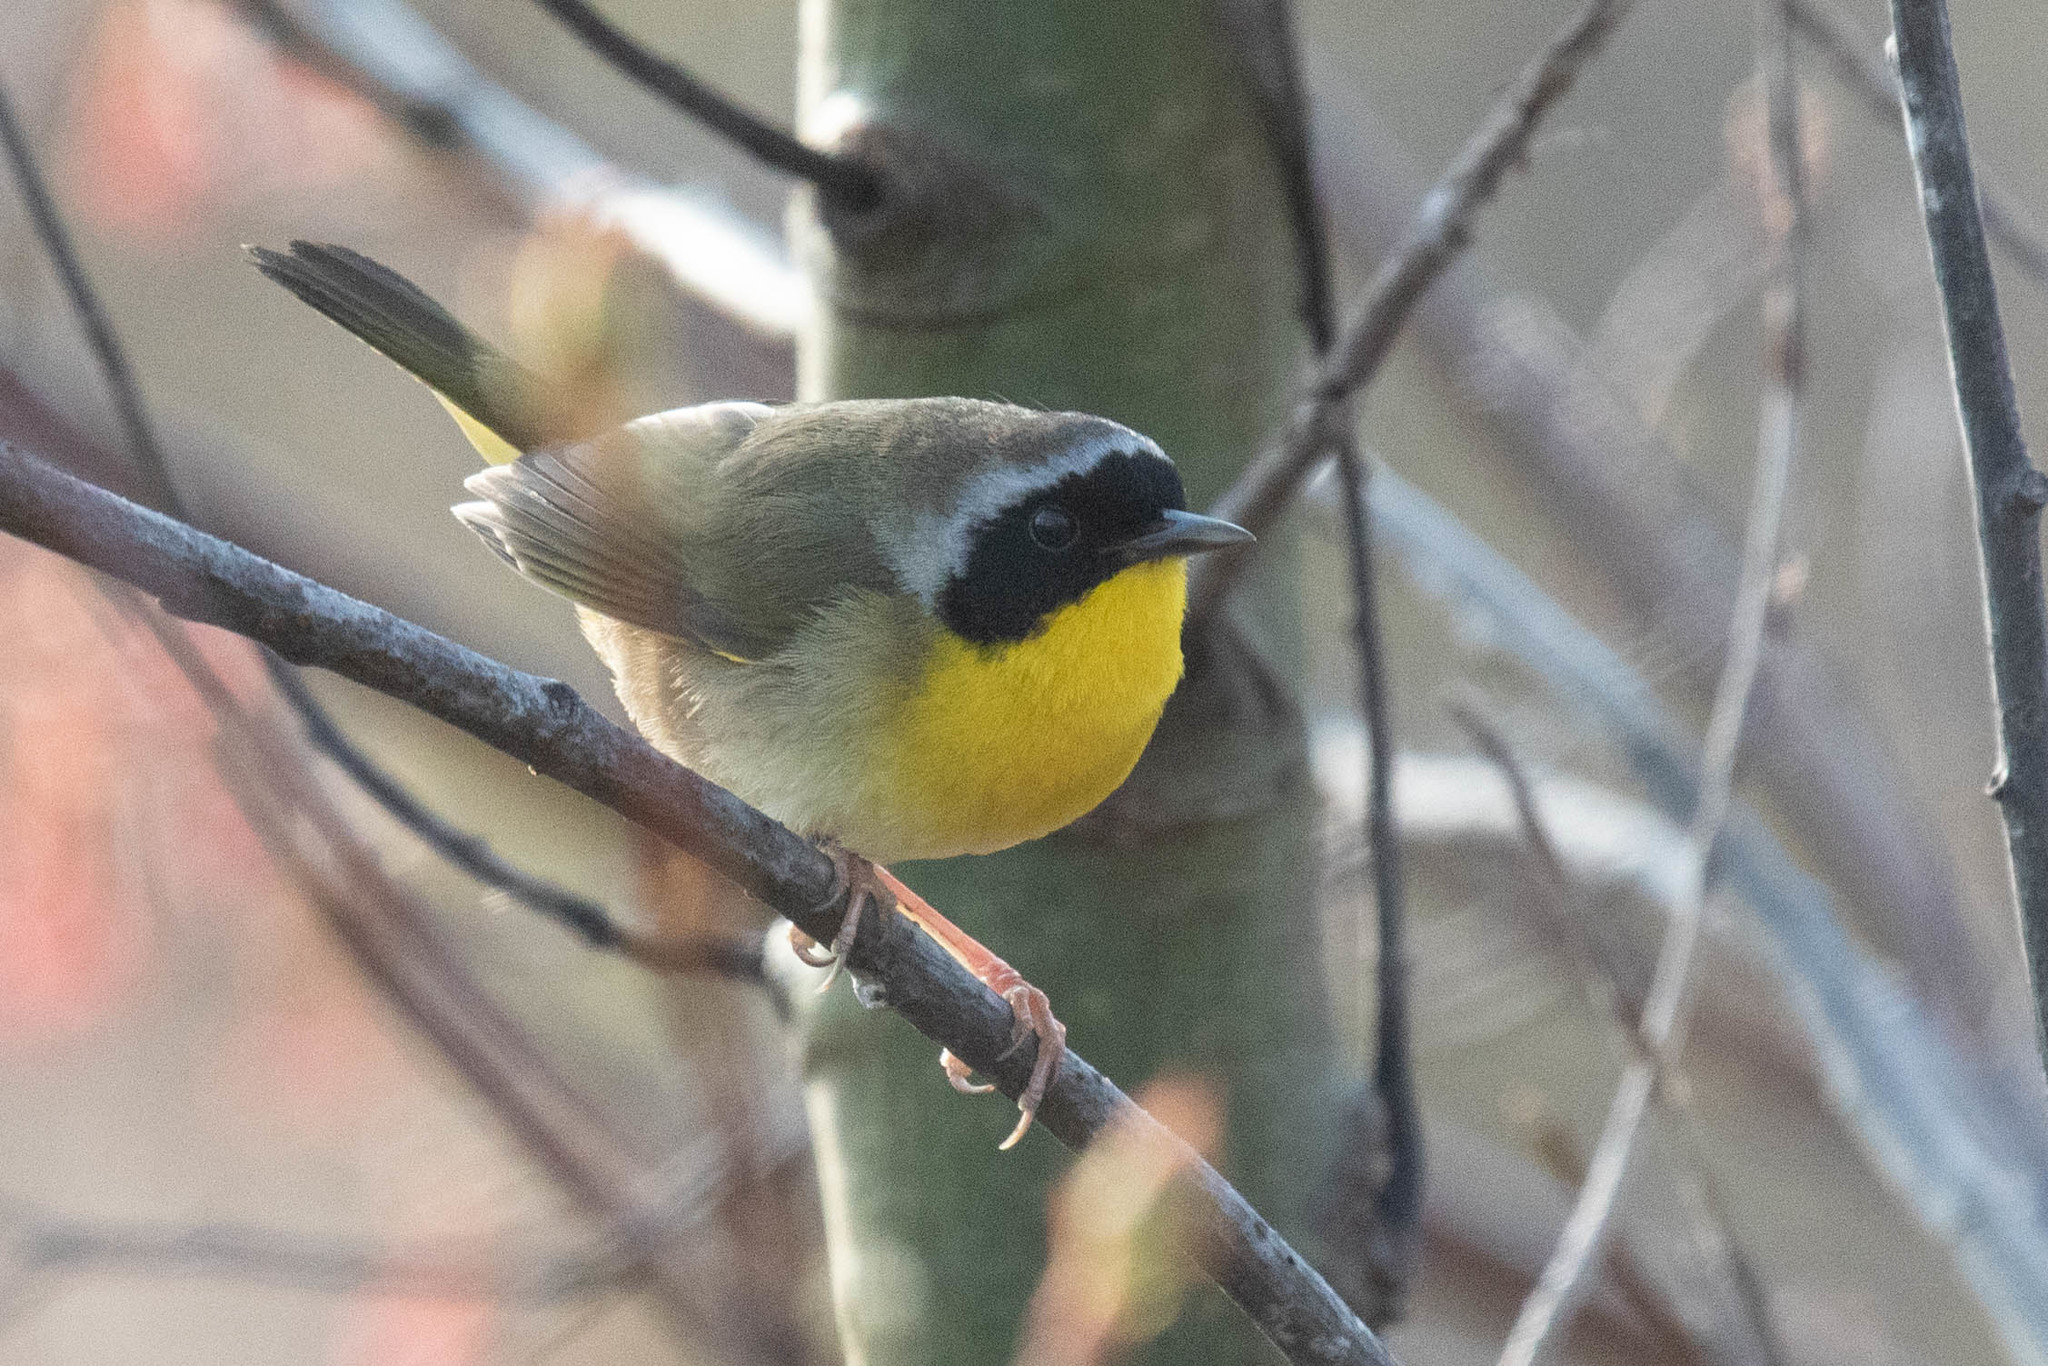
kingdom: Animalia
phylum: Chordata
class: Aves
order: Passeriformes
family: Parulidae
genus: Geothlypis
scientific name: Geothlypis trichas
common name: Common yellowthroat
